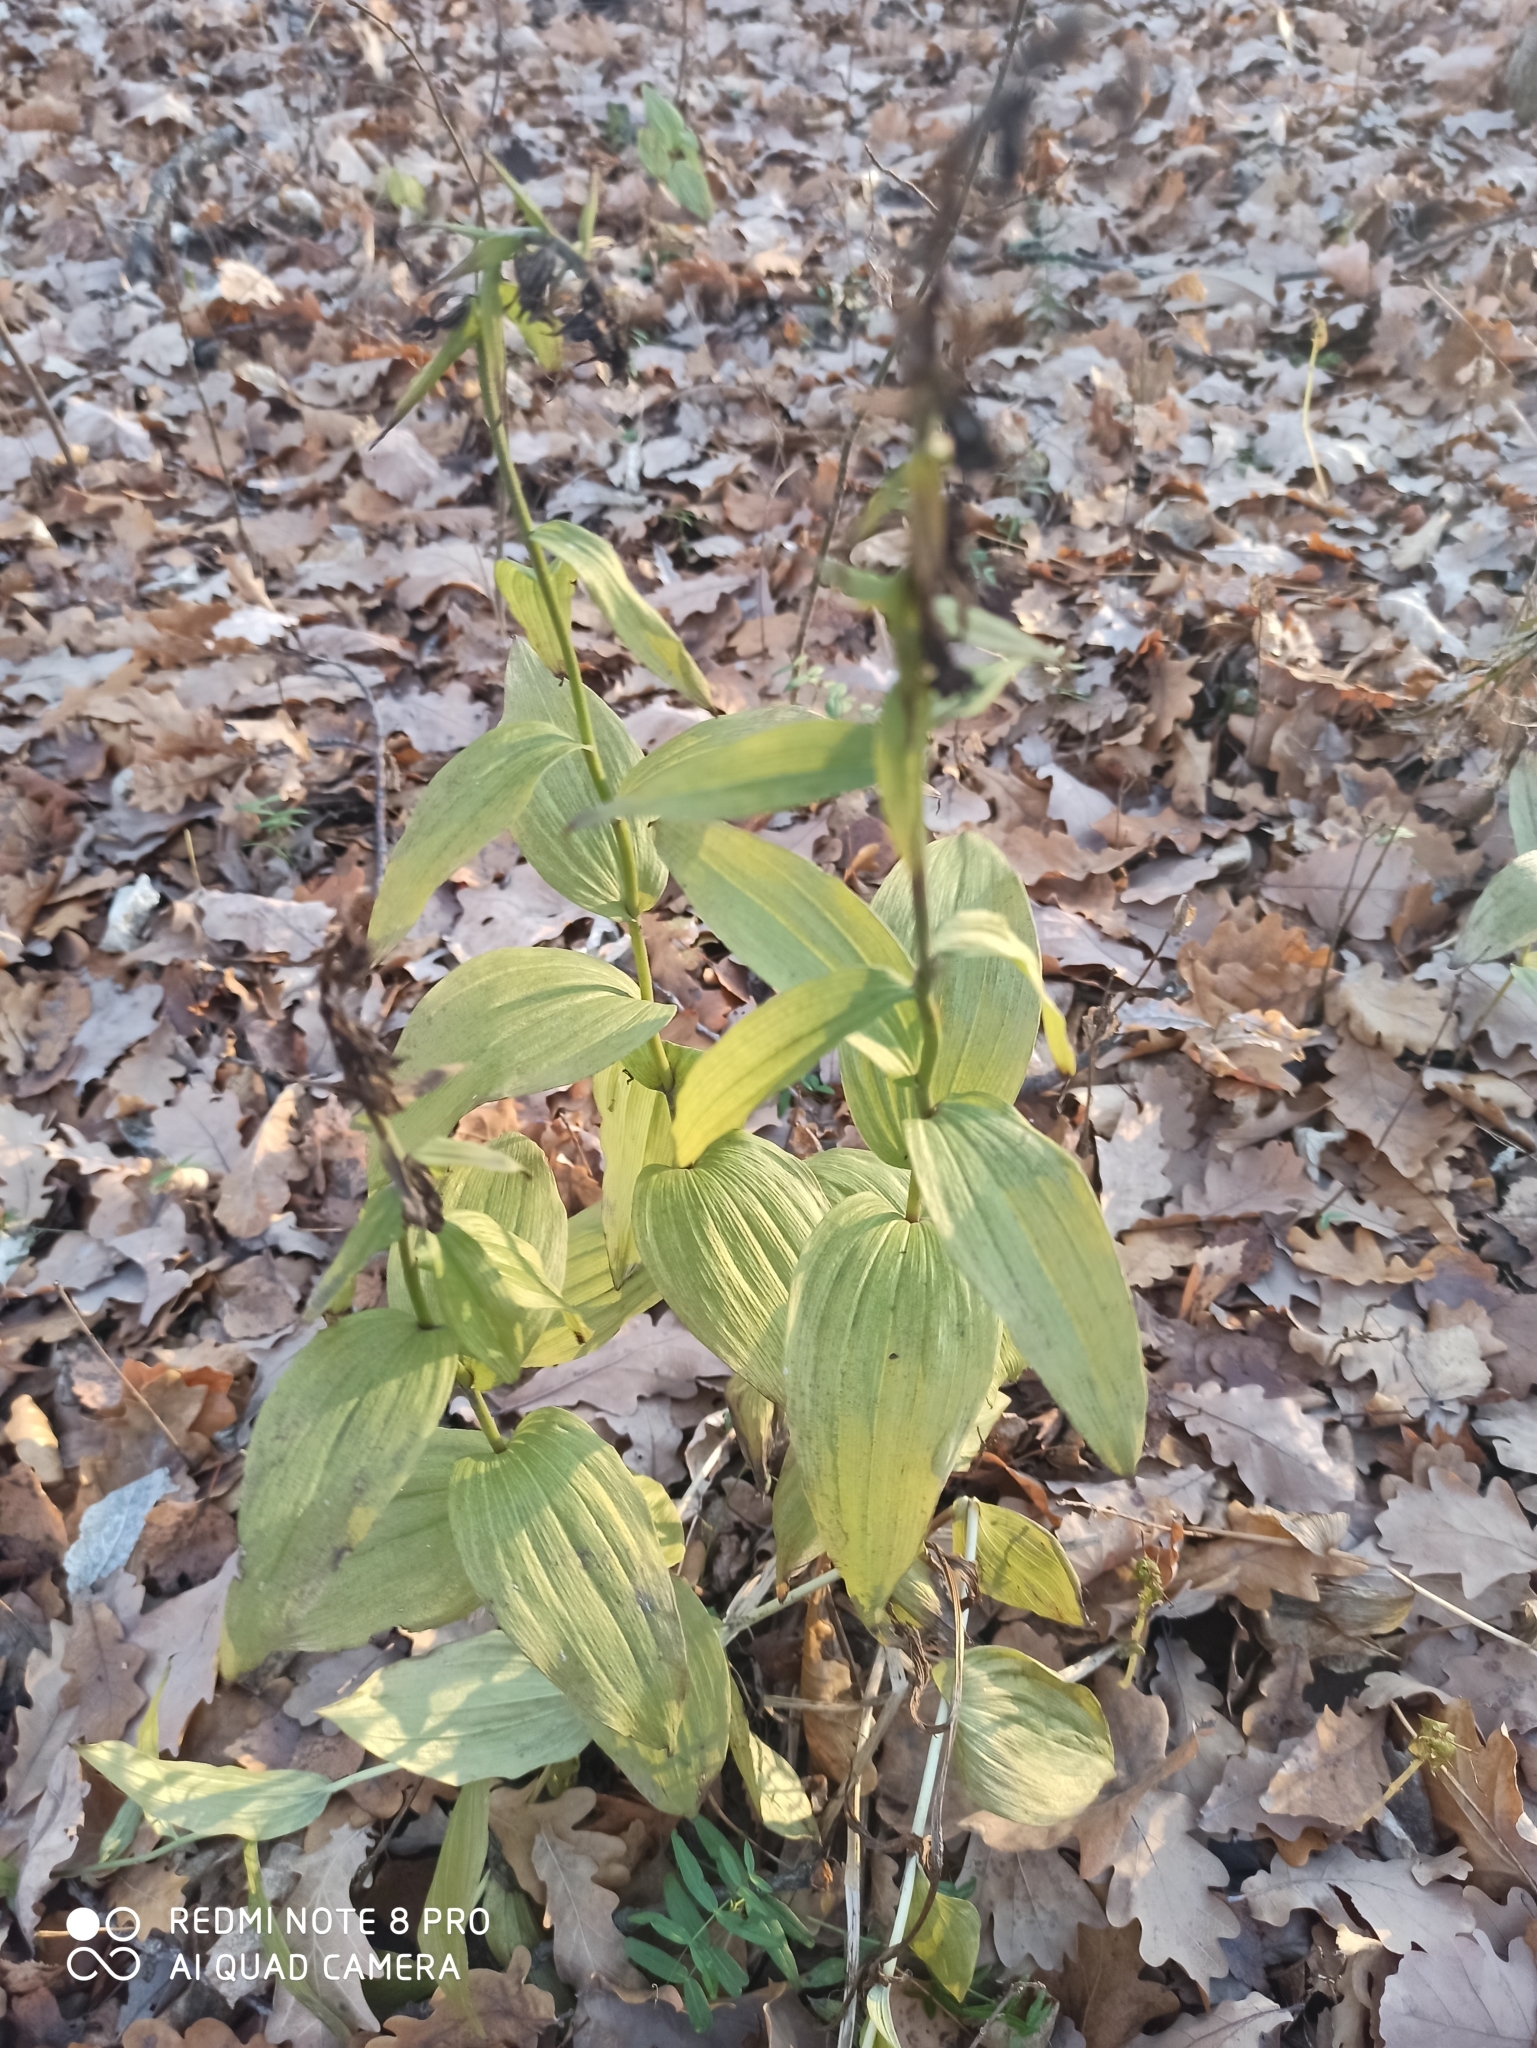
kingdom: Plantae
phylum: Tracheophyta
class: Liliopsida
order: Asparagales
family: Orchidaceae
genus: Epipactis
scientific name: Epipactis helleborine
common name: Broad-leaved helleborine
